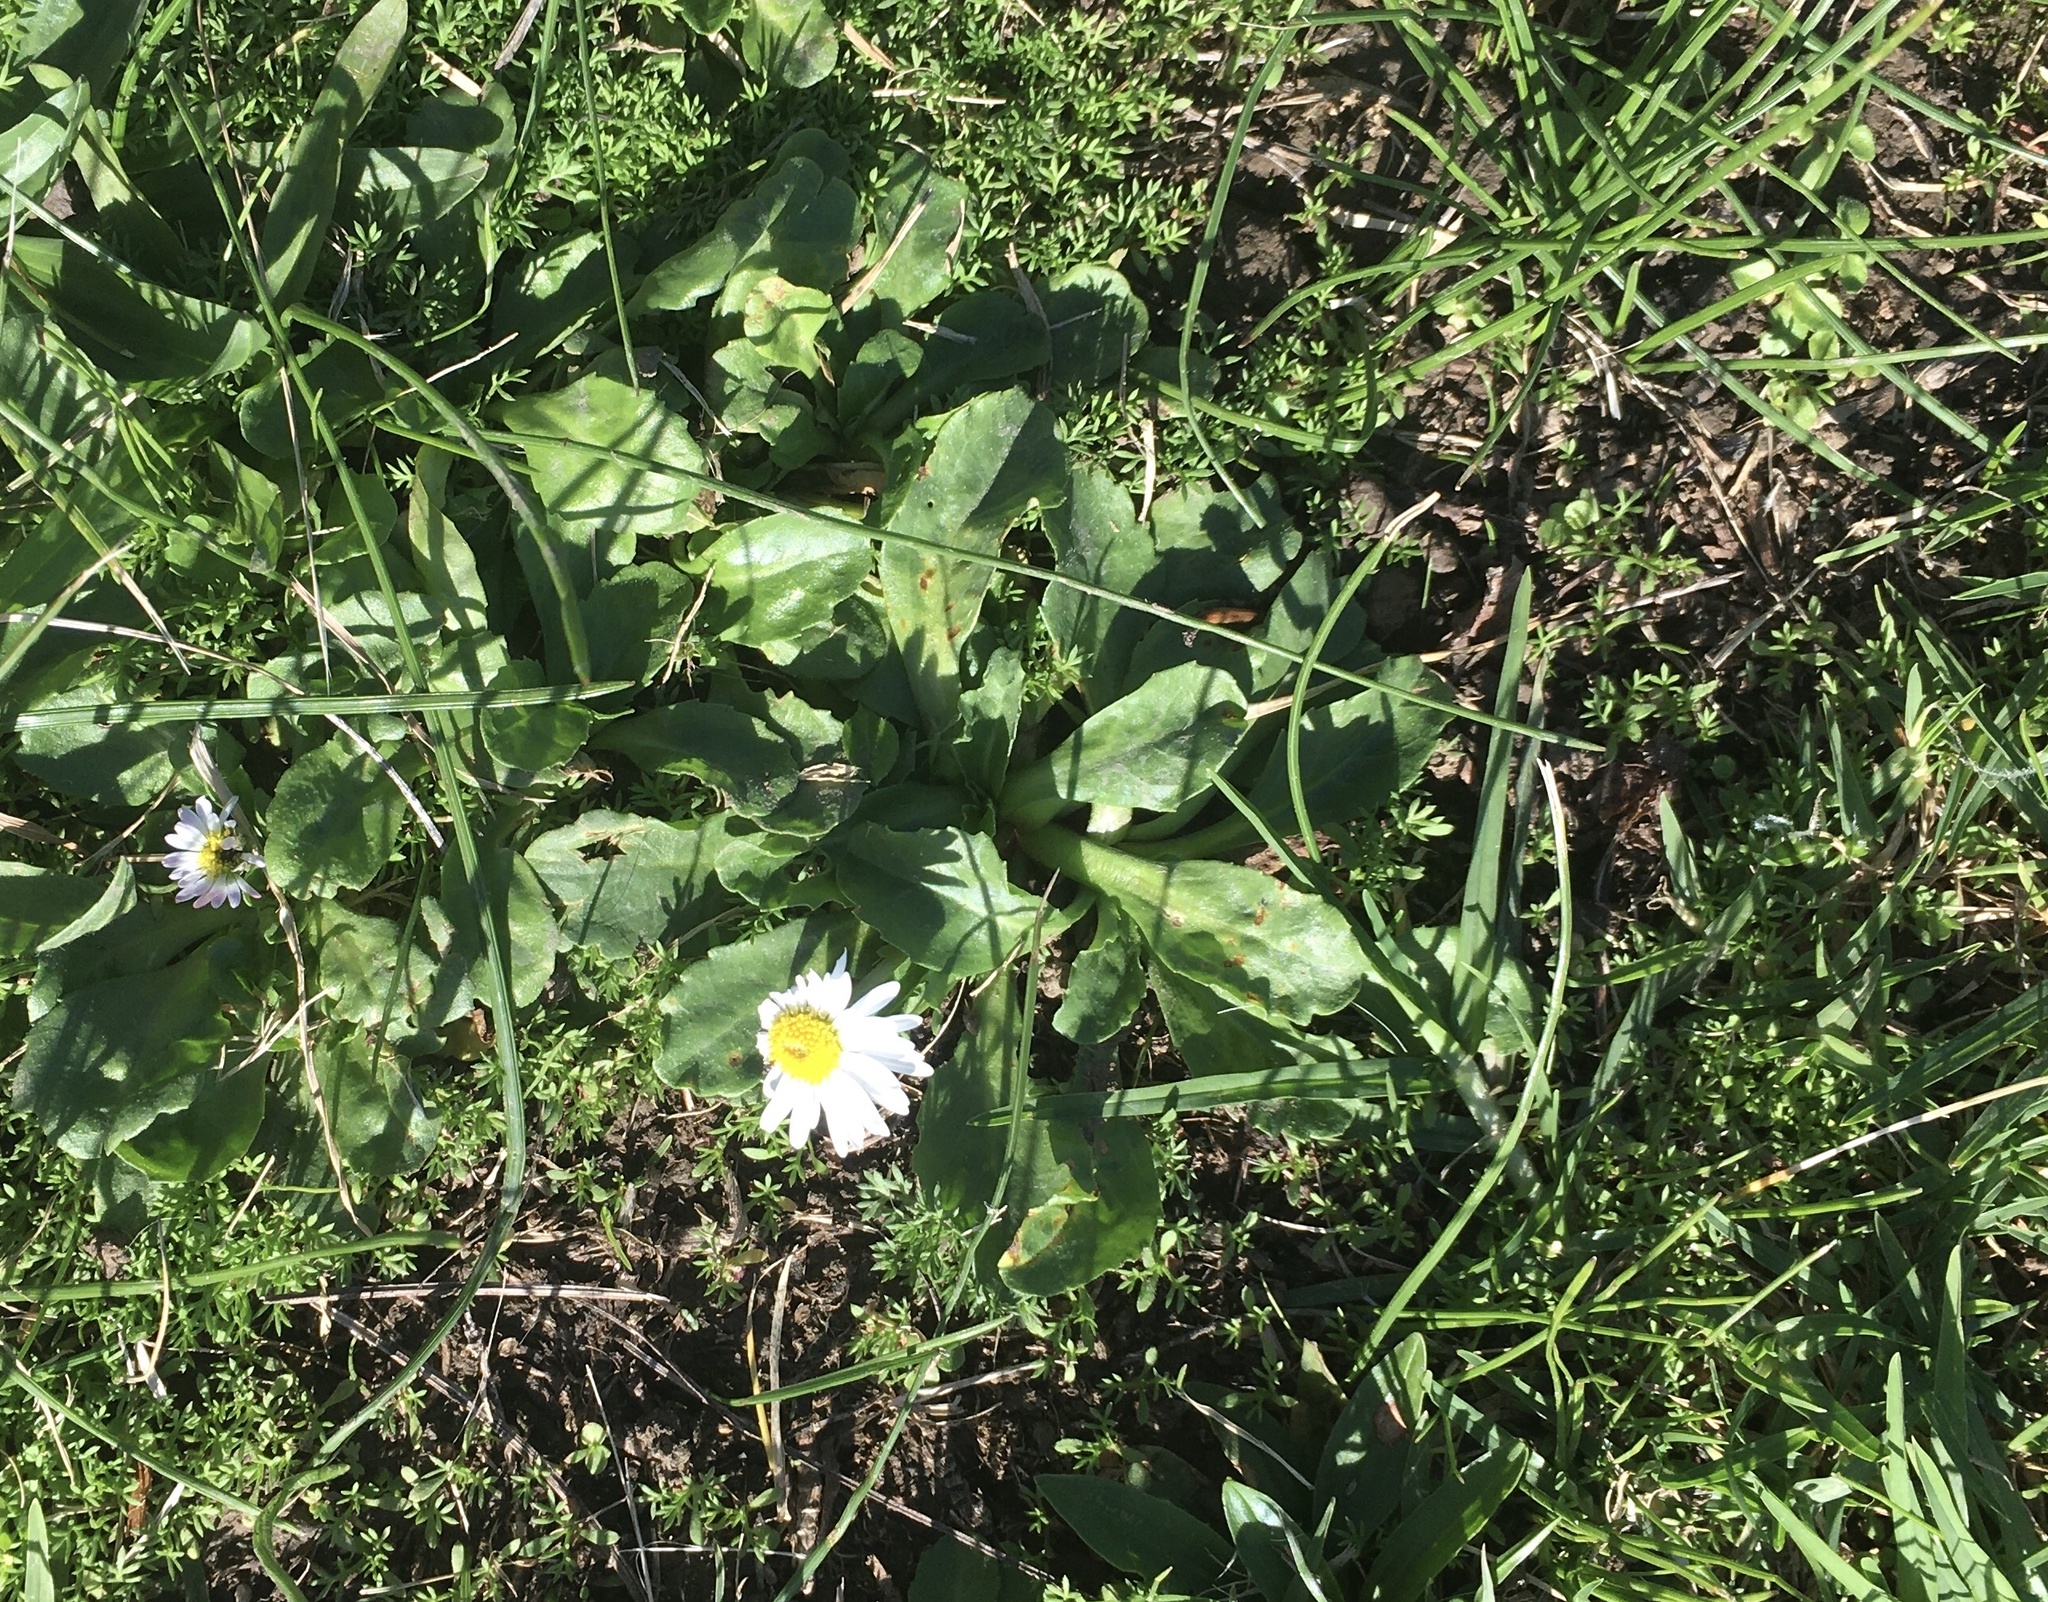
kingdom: Plantae
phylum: Tracheophyta
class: Magnoliopsida
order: Asterales
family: Asteraceae
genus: Bellis
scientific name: Bellis perennis
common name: Lawndaisy
